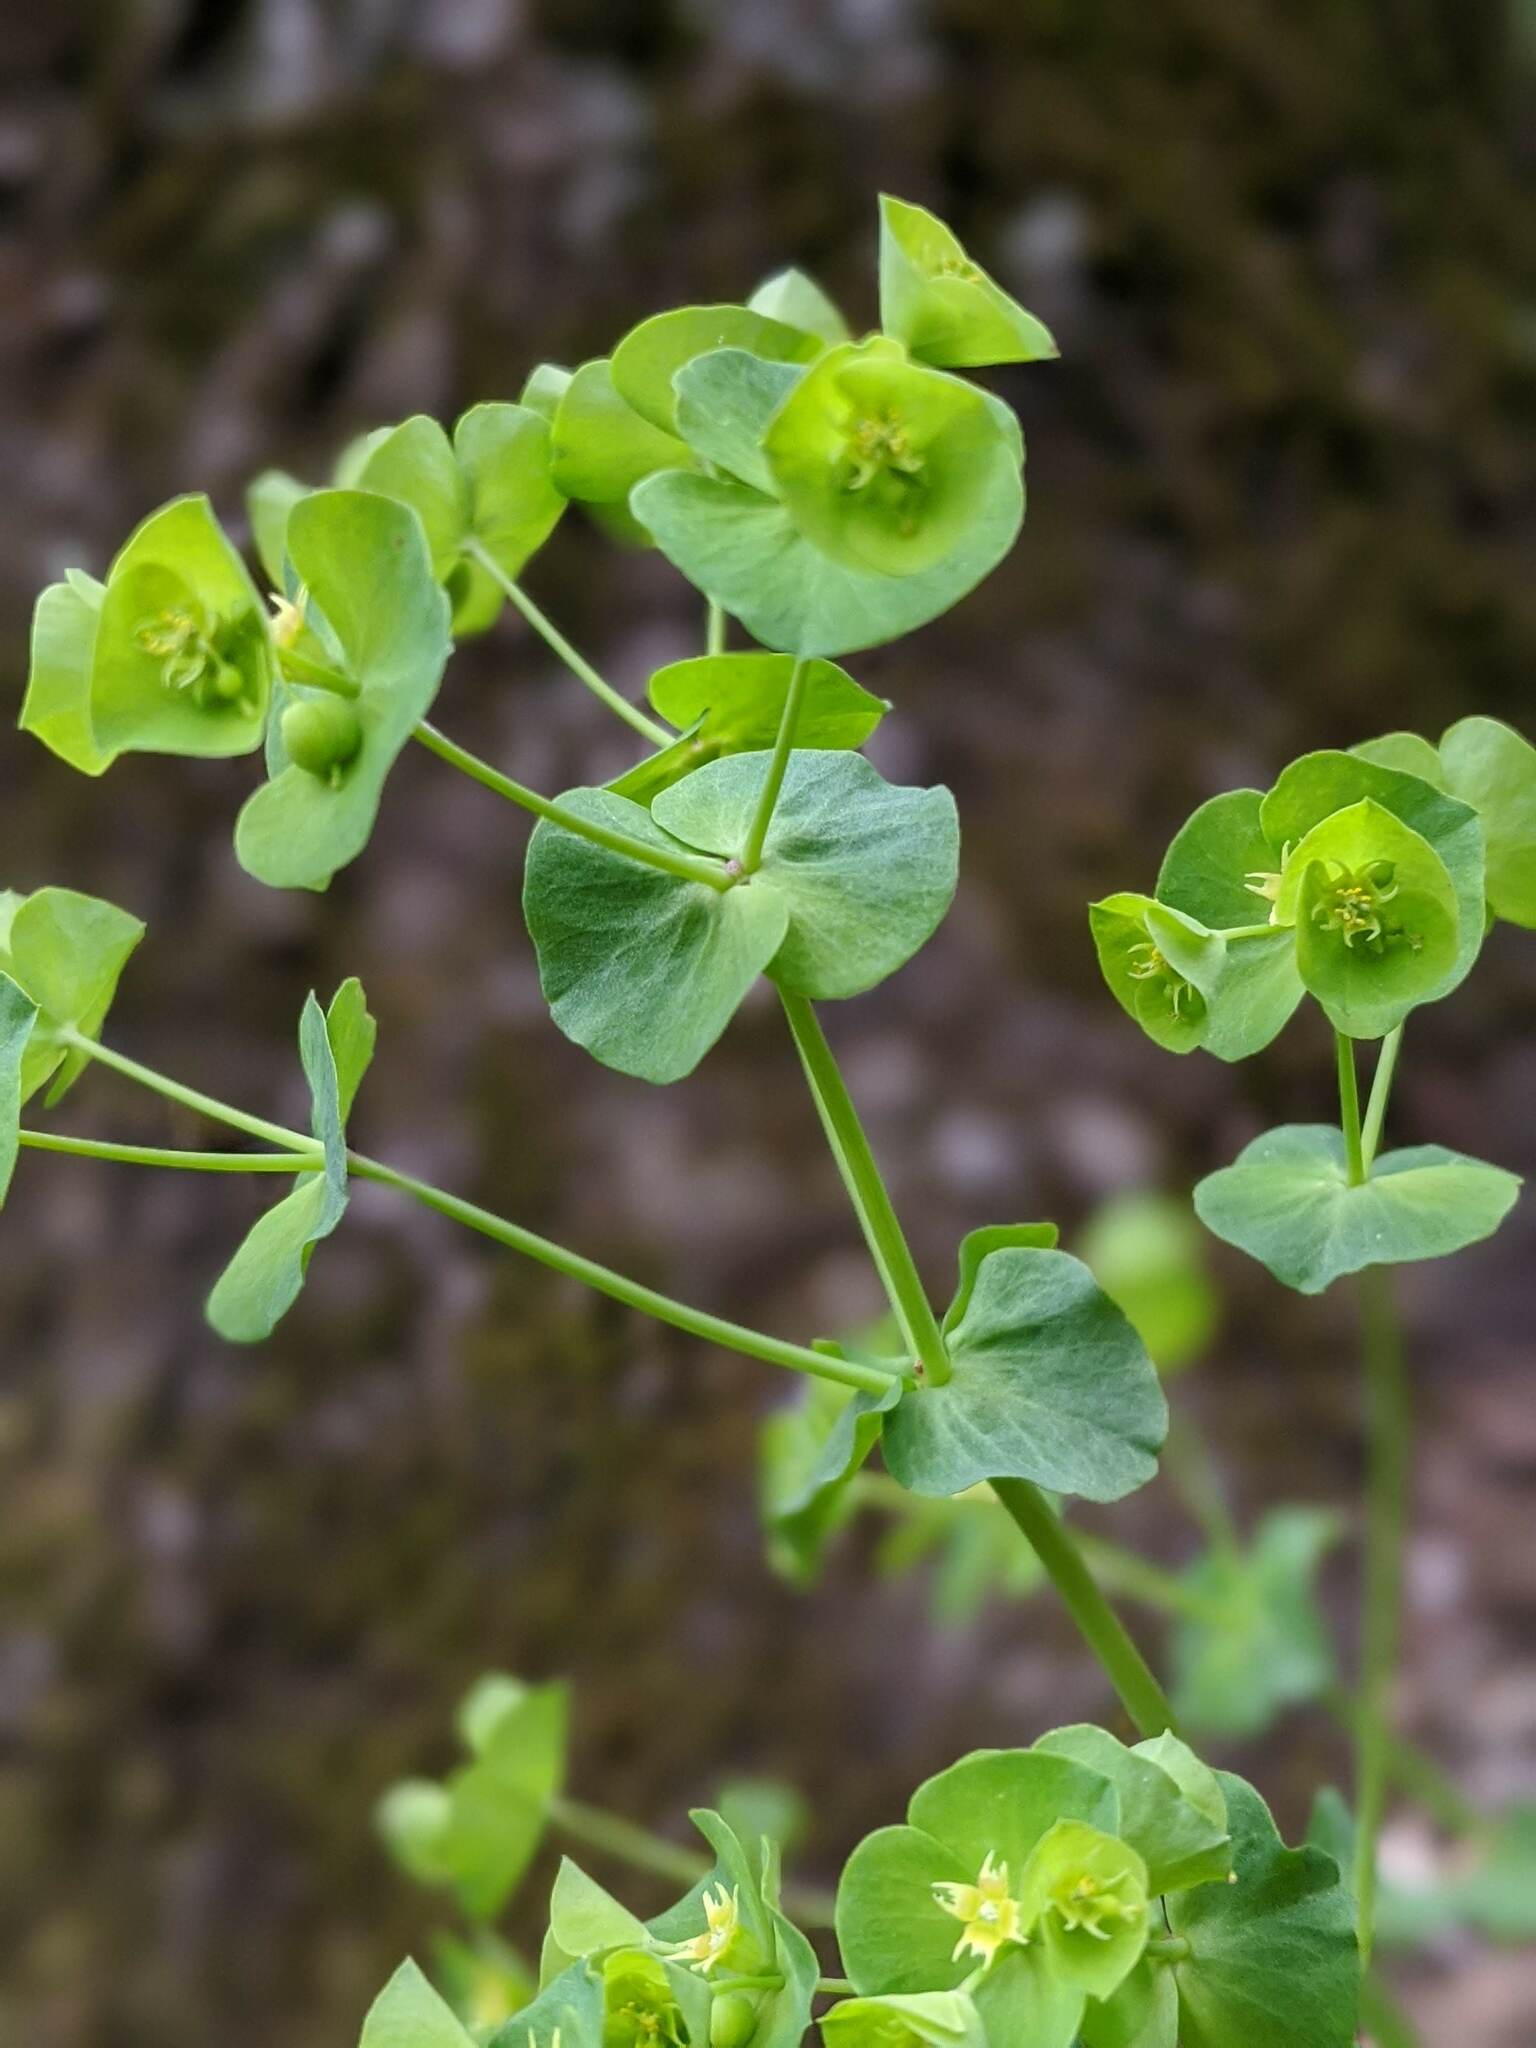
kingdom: Plantae
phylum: Tracheophyta
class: Magnoliopsida
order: Malpighiales
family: Euphorbiaceae
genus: Euphorbia
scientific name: Euphorbia commutata
